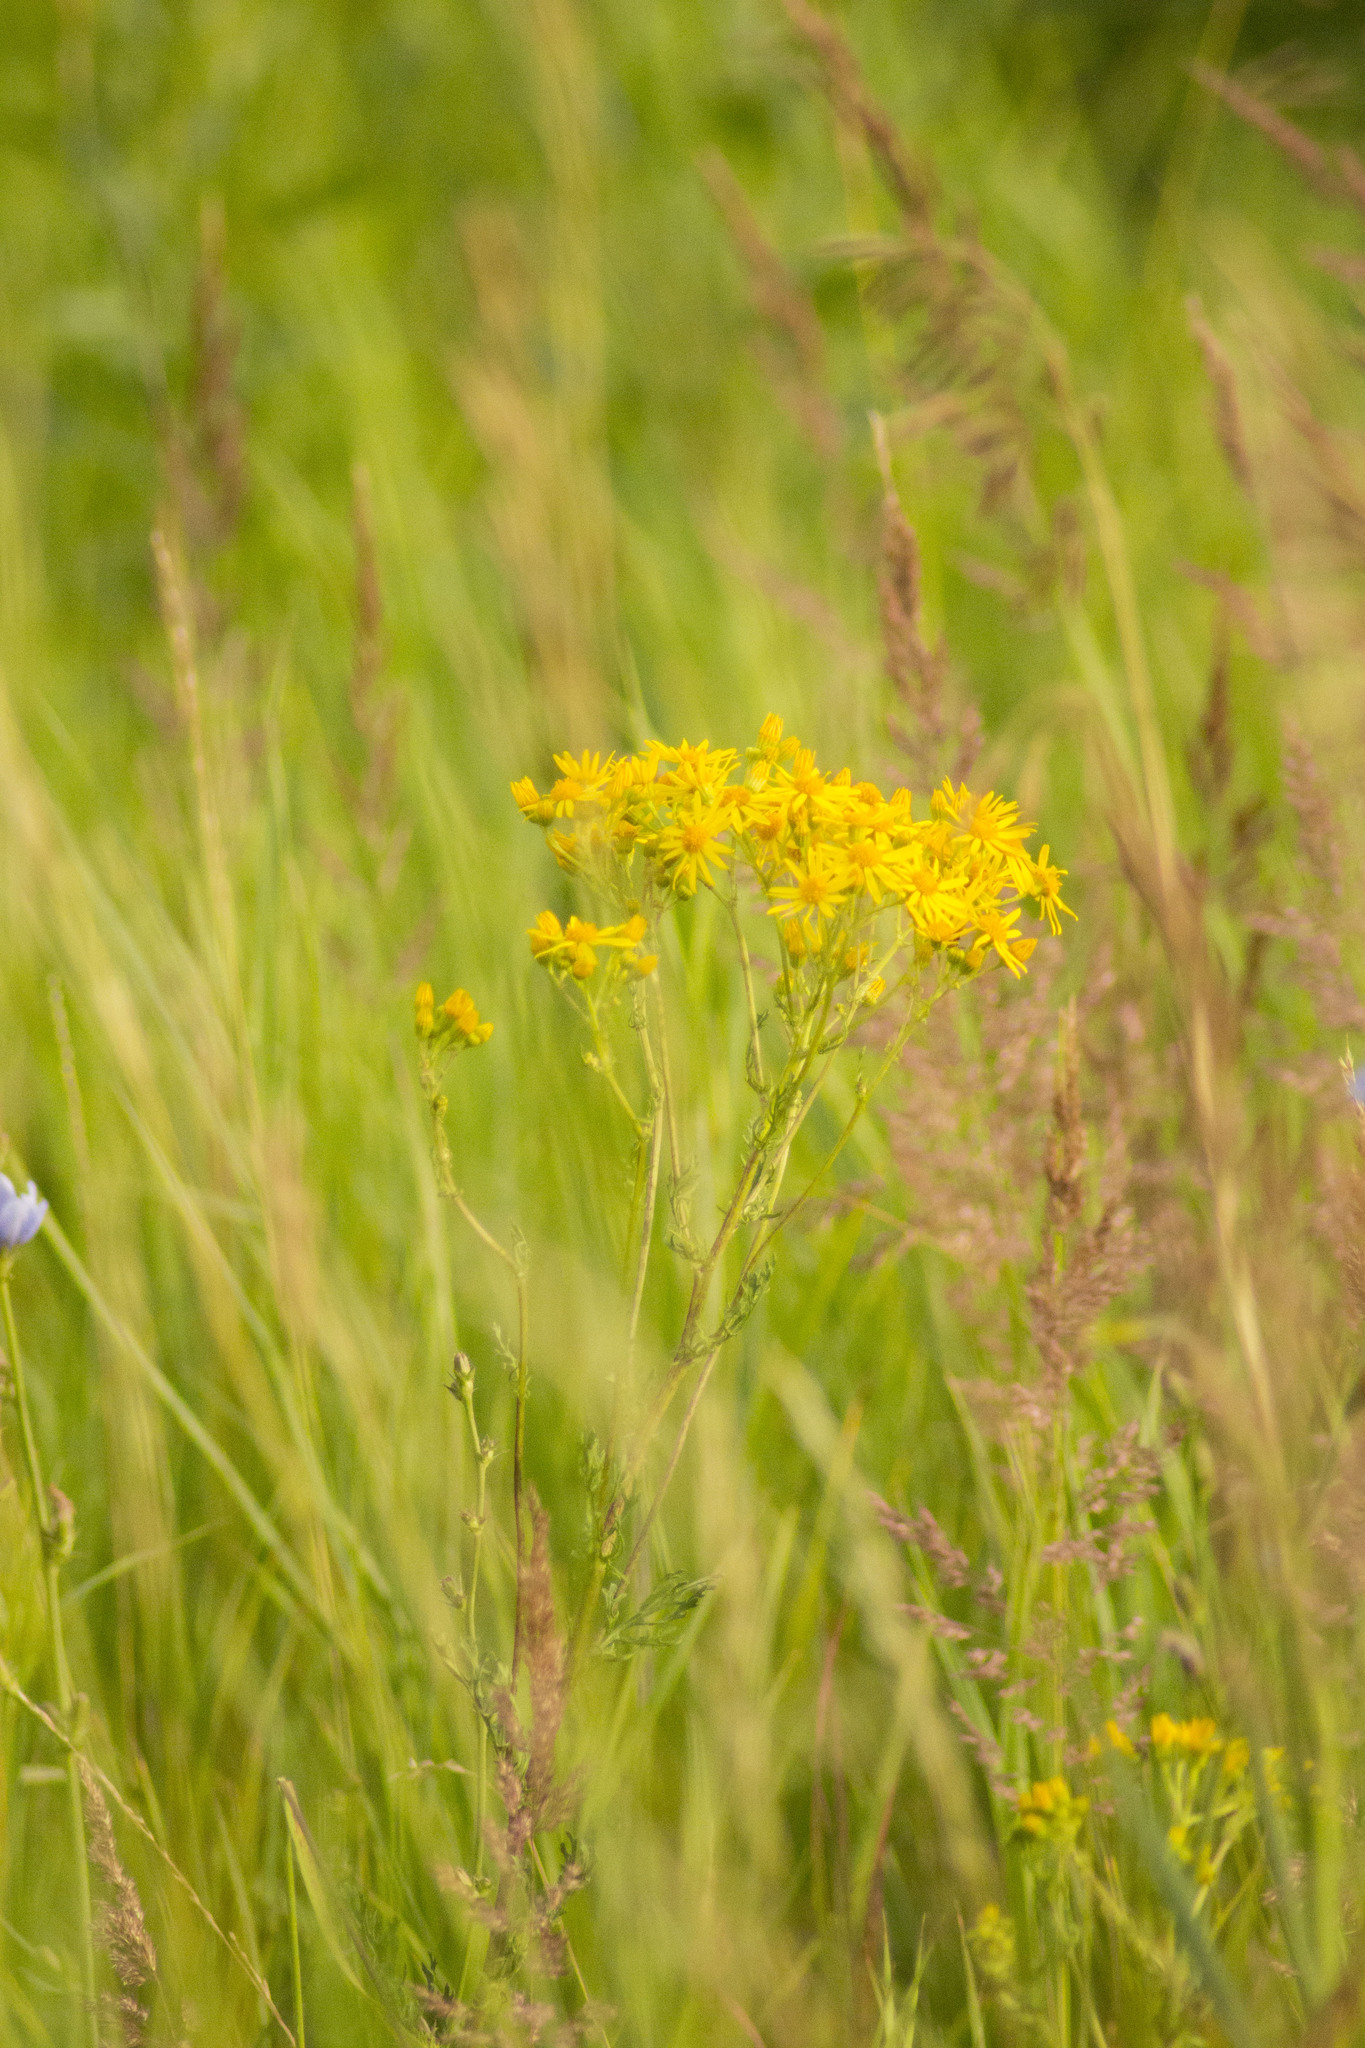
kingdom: Plantae
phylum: Tracheophyta
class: Magnoliopsida
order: Asterales
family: Asteraceae
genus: Jacobaea
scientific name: Jacobaea vulgaris
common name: Stinking willie
